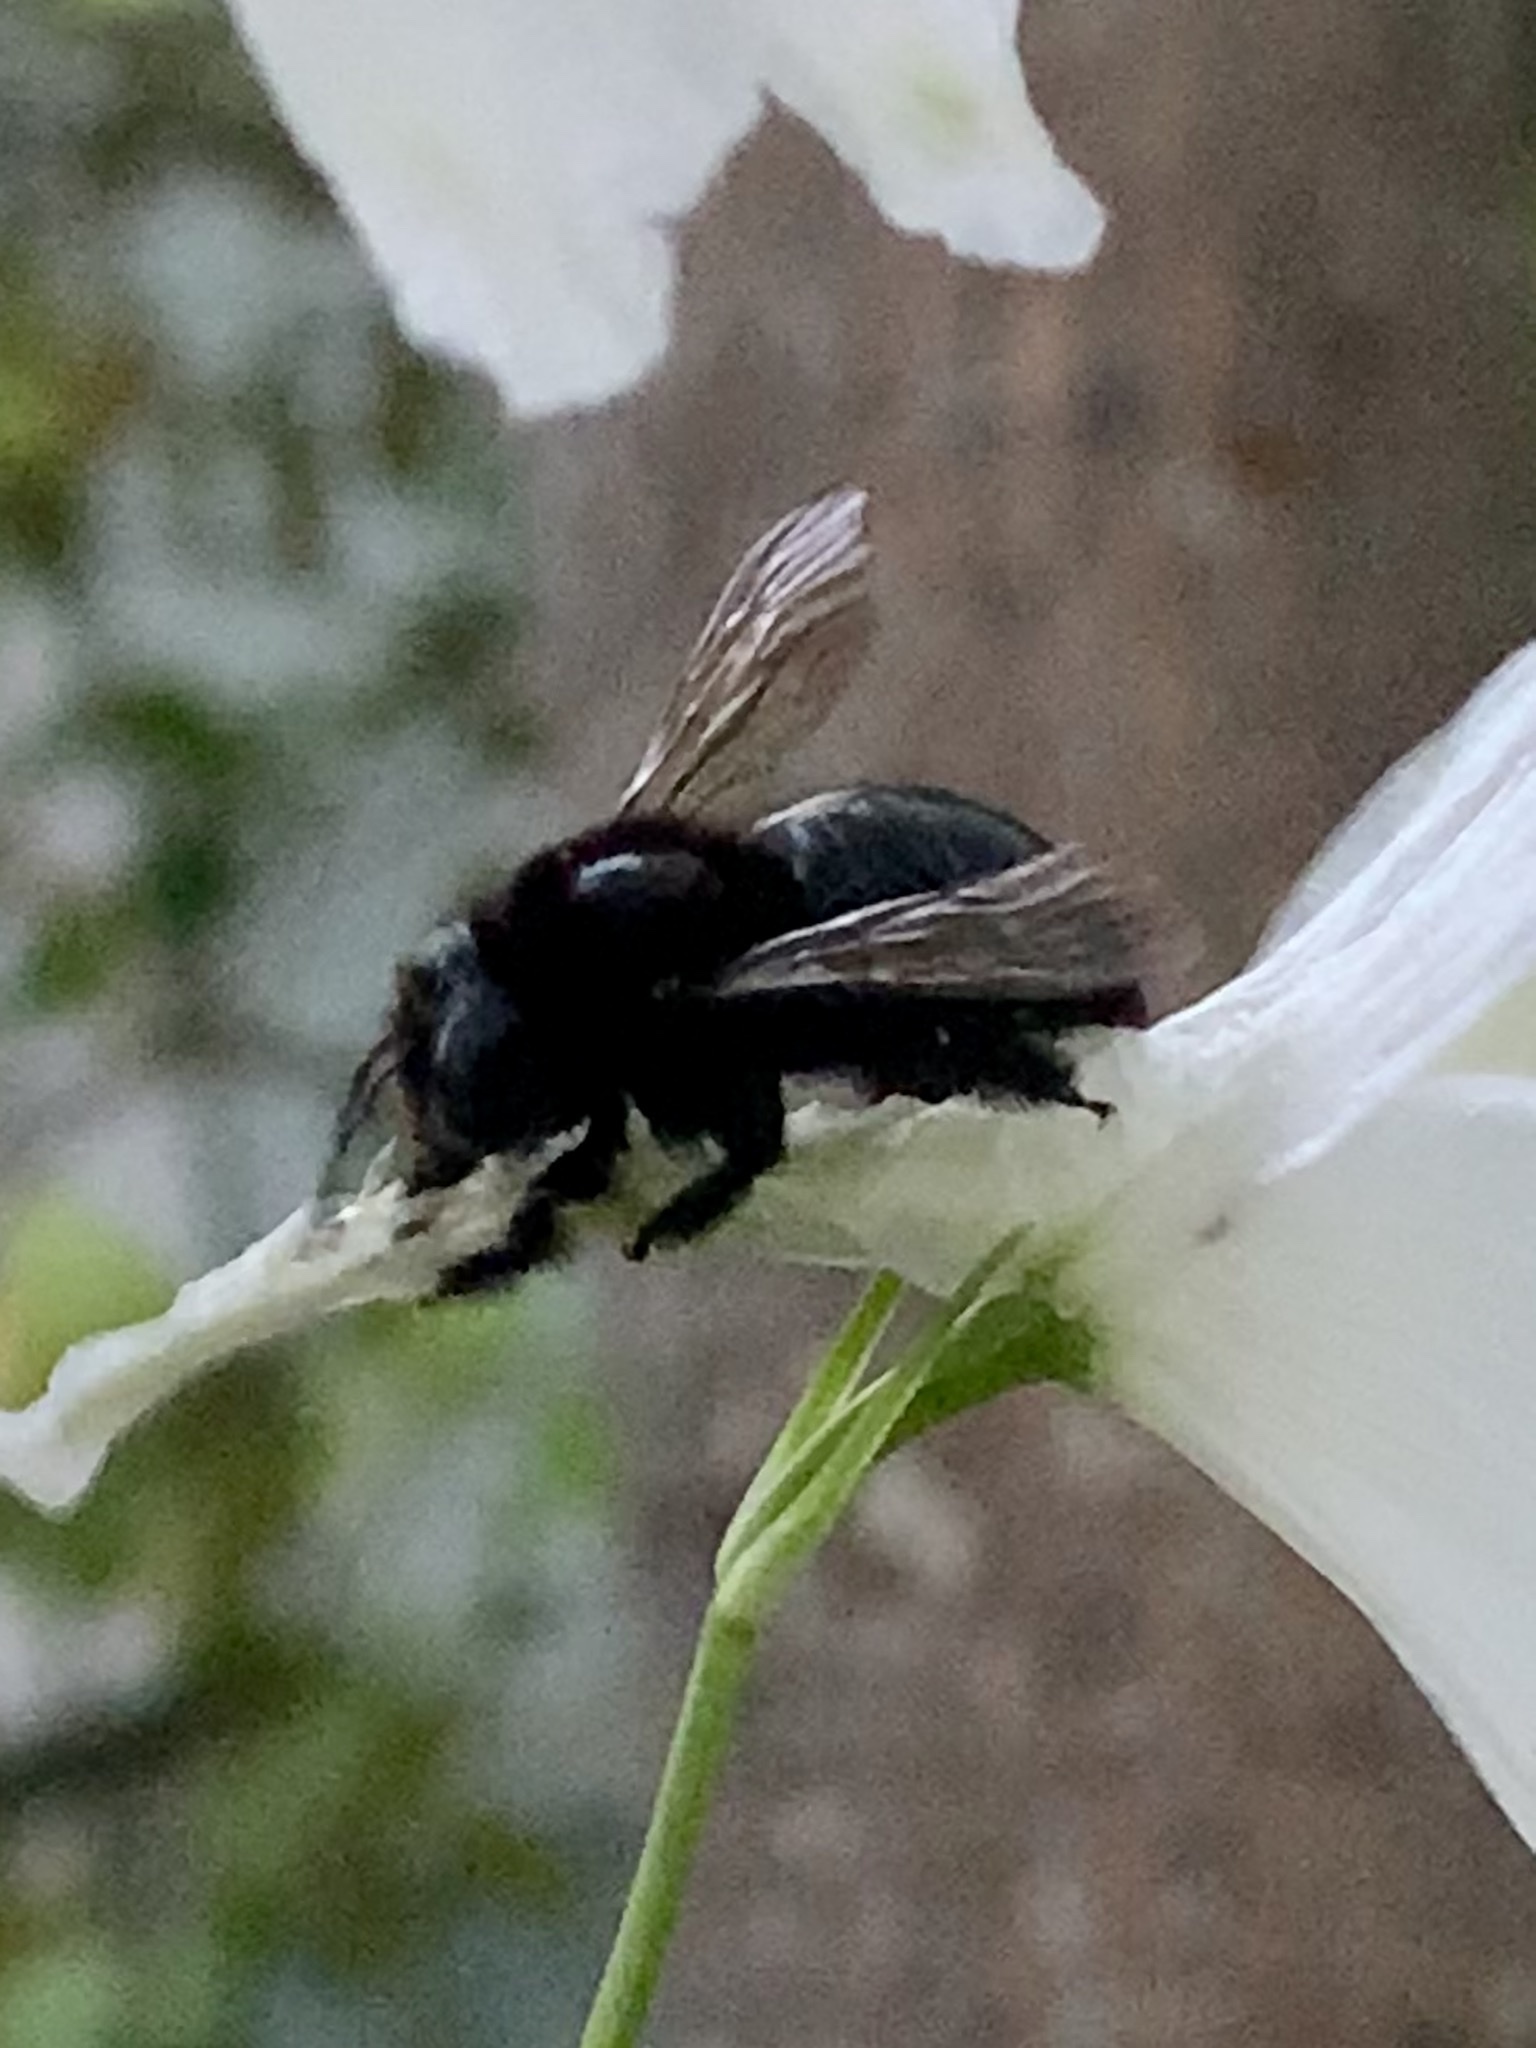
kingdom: Animalia
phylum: Arthropoda
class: Insecta
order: Hymenoptera
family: Apidae
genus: Xylocopa
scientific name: Xylocopa tabaniformis
